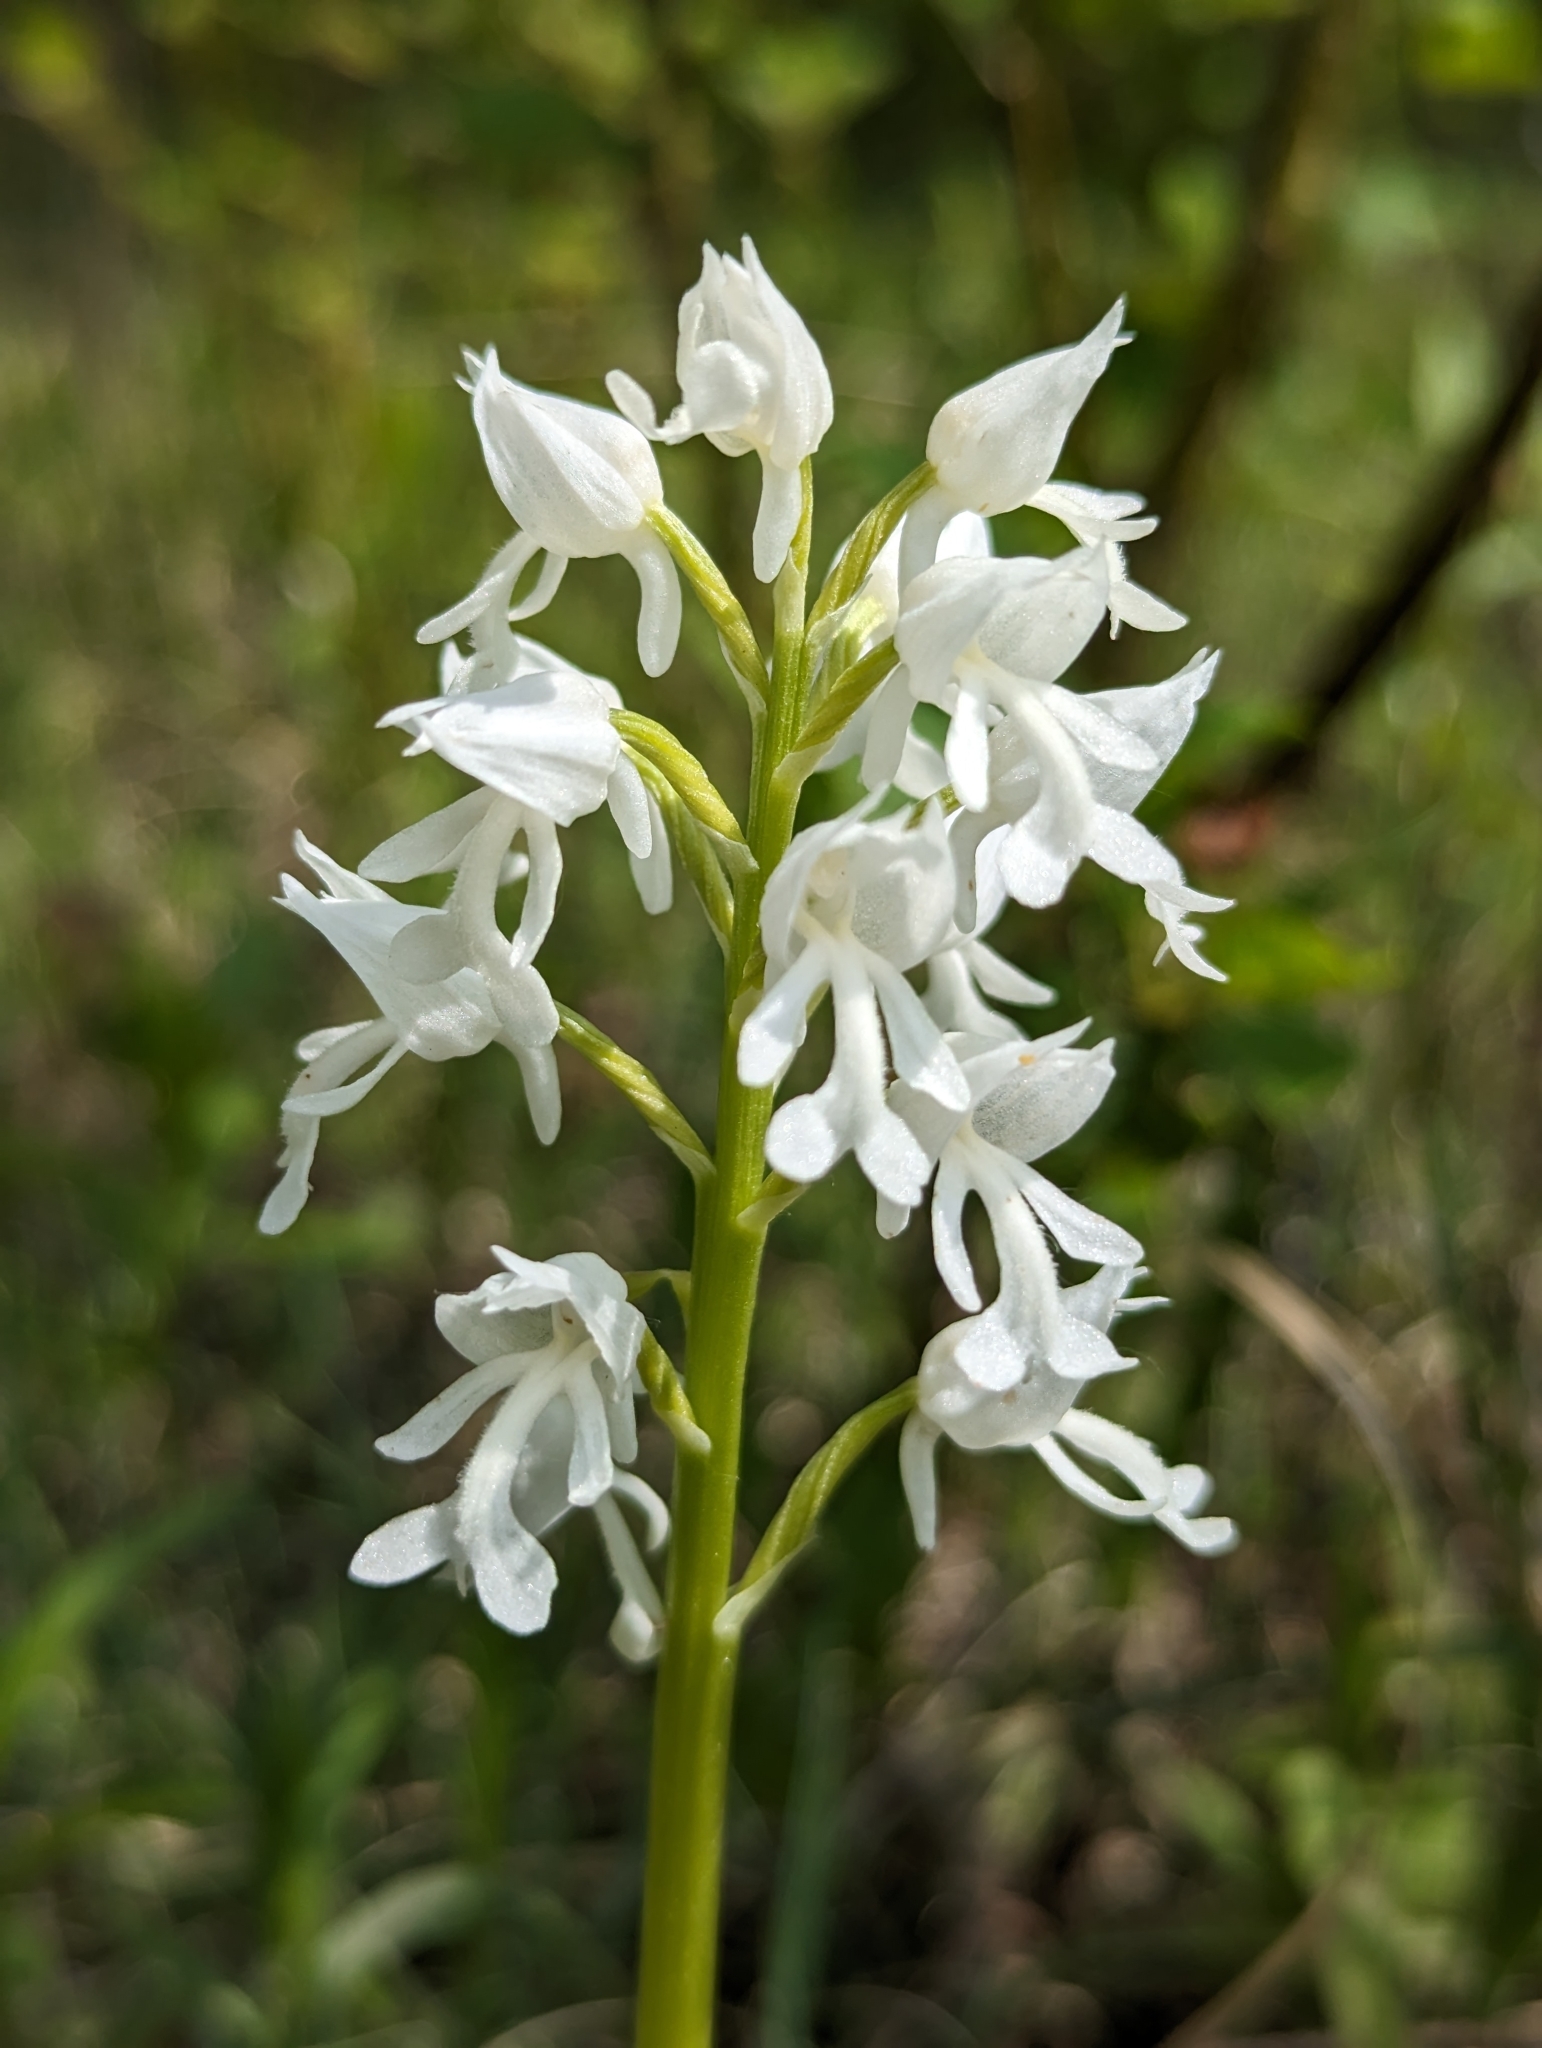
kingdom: Plantae
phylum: Tracheophyta
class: Liliopsida
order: Asparagales
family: Orchidaceae
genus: Orchis
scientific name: Orchis militaris
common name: Military orchid
